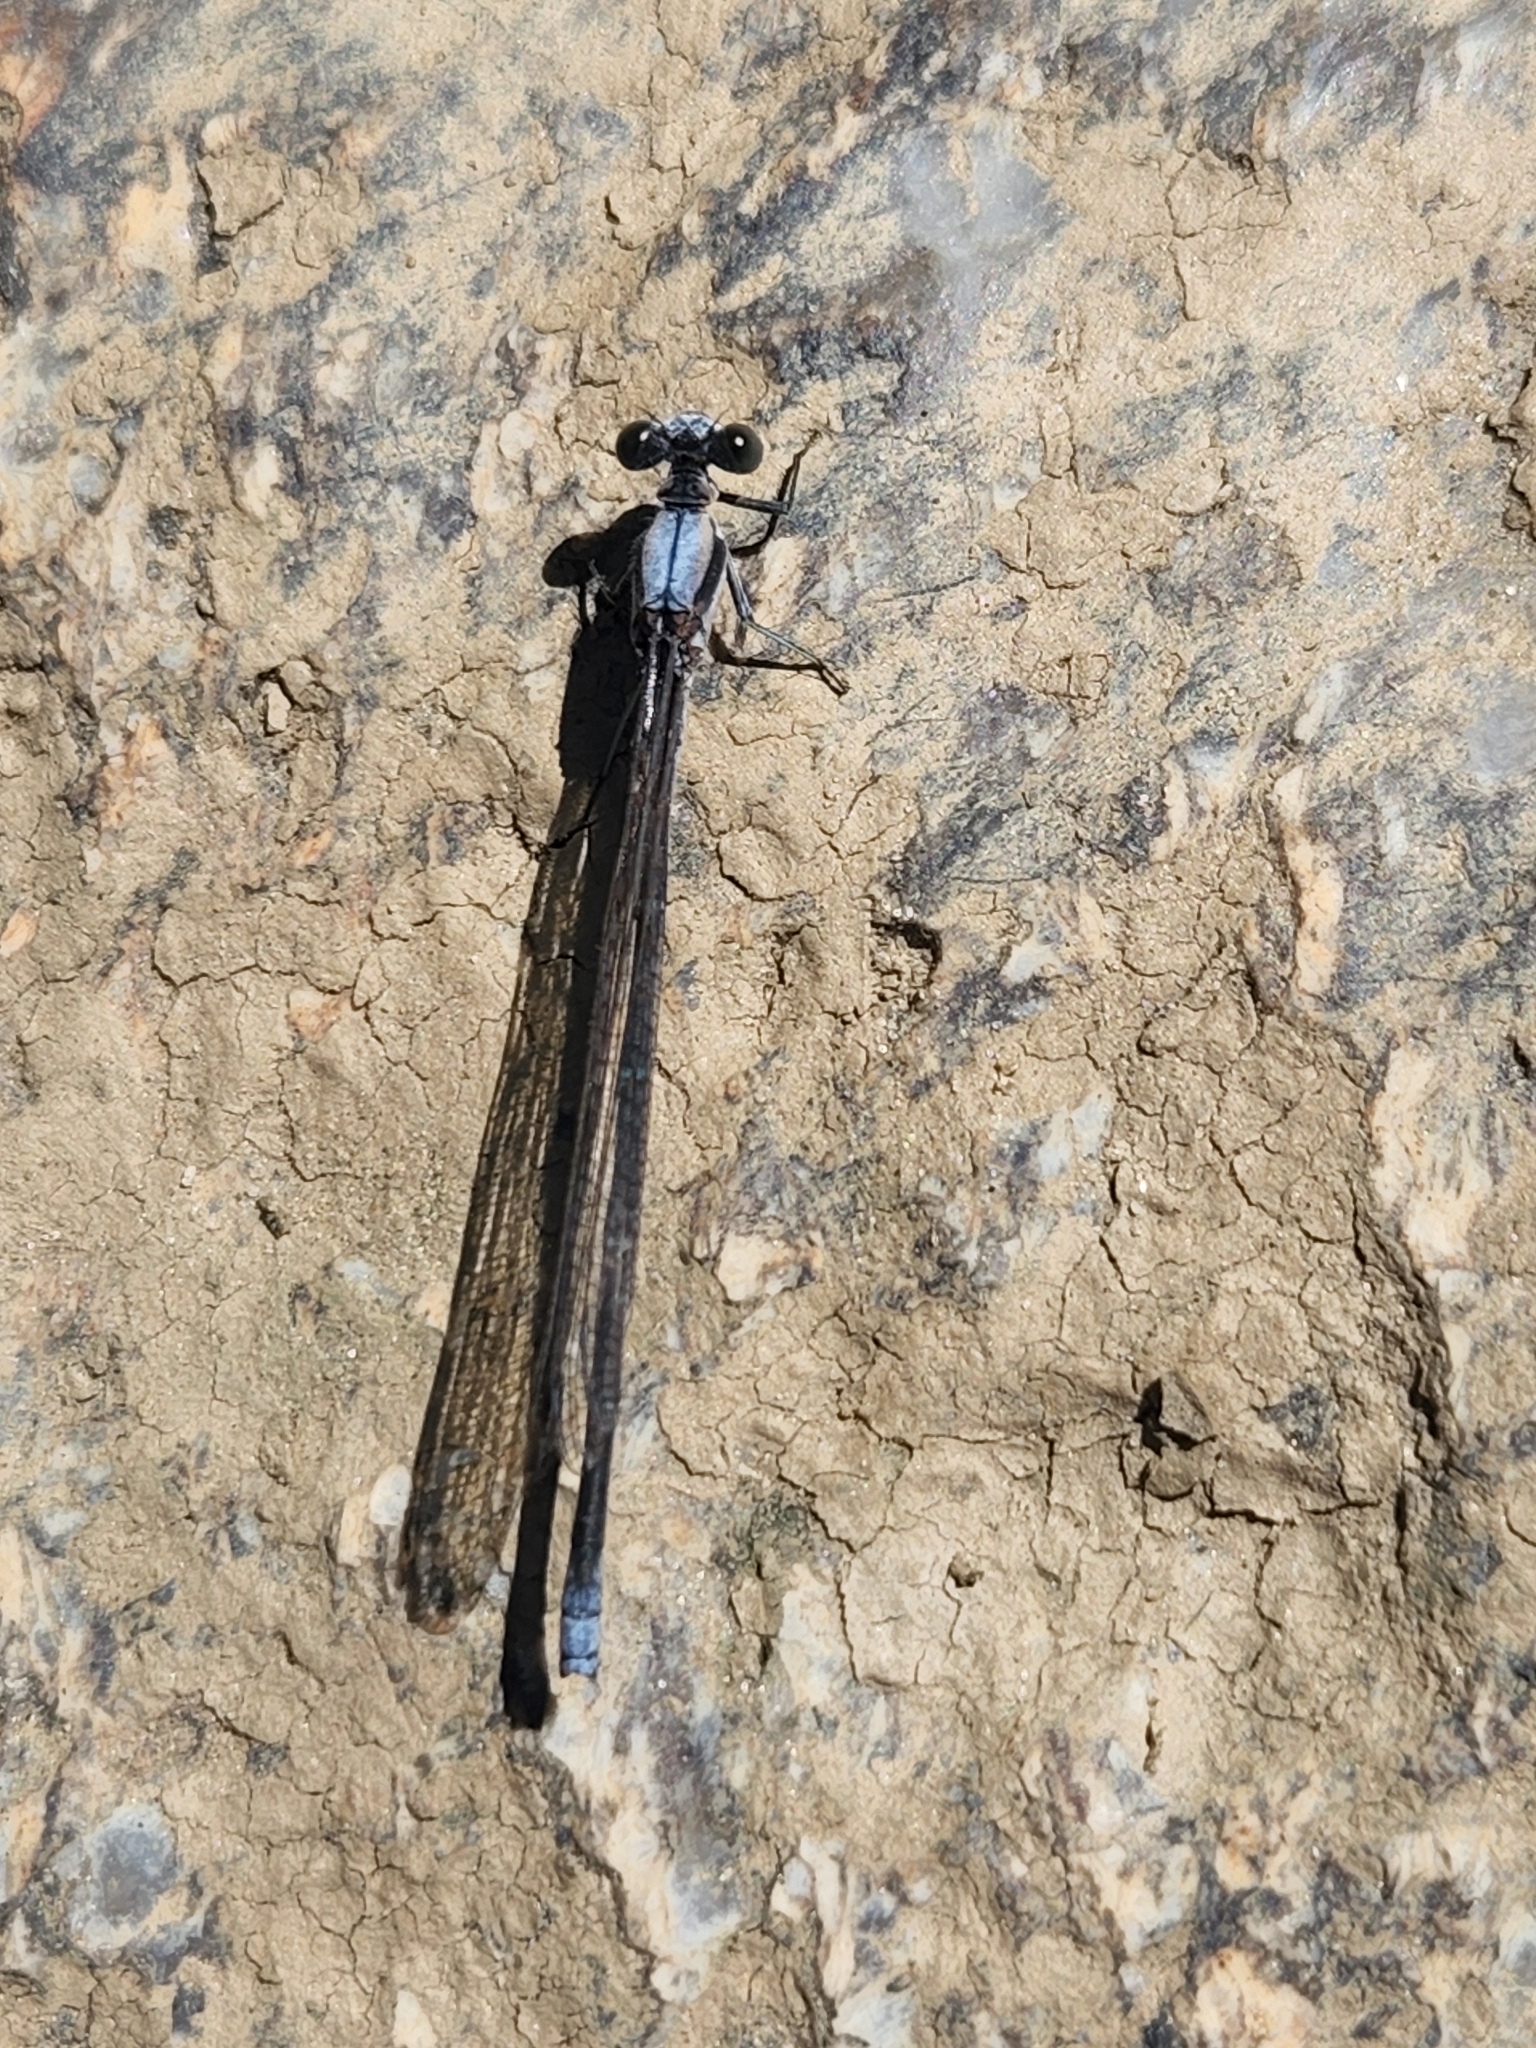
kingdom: Animalia
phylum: Arthropoda
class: Insecta
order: Odonata
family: Coenagrionidae
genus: Argia
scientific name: Argia moesta
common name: Powdered dancer
